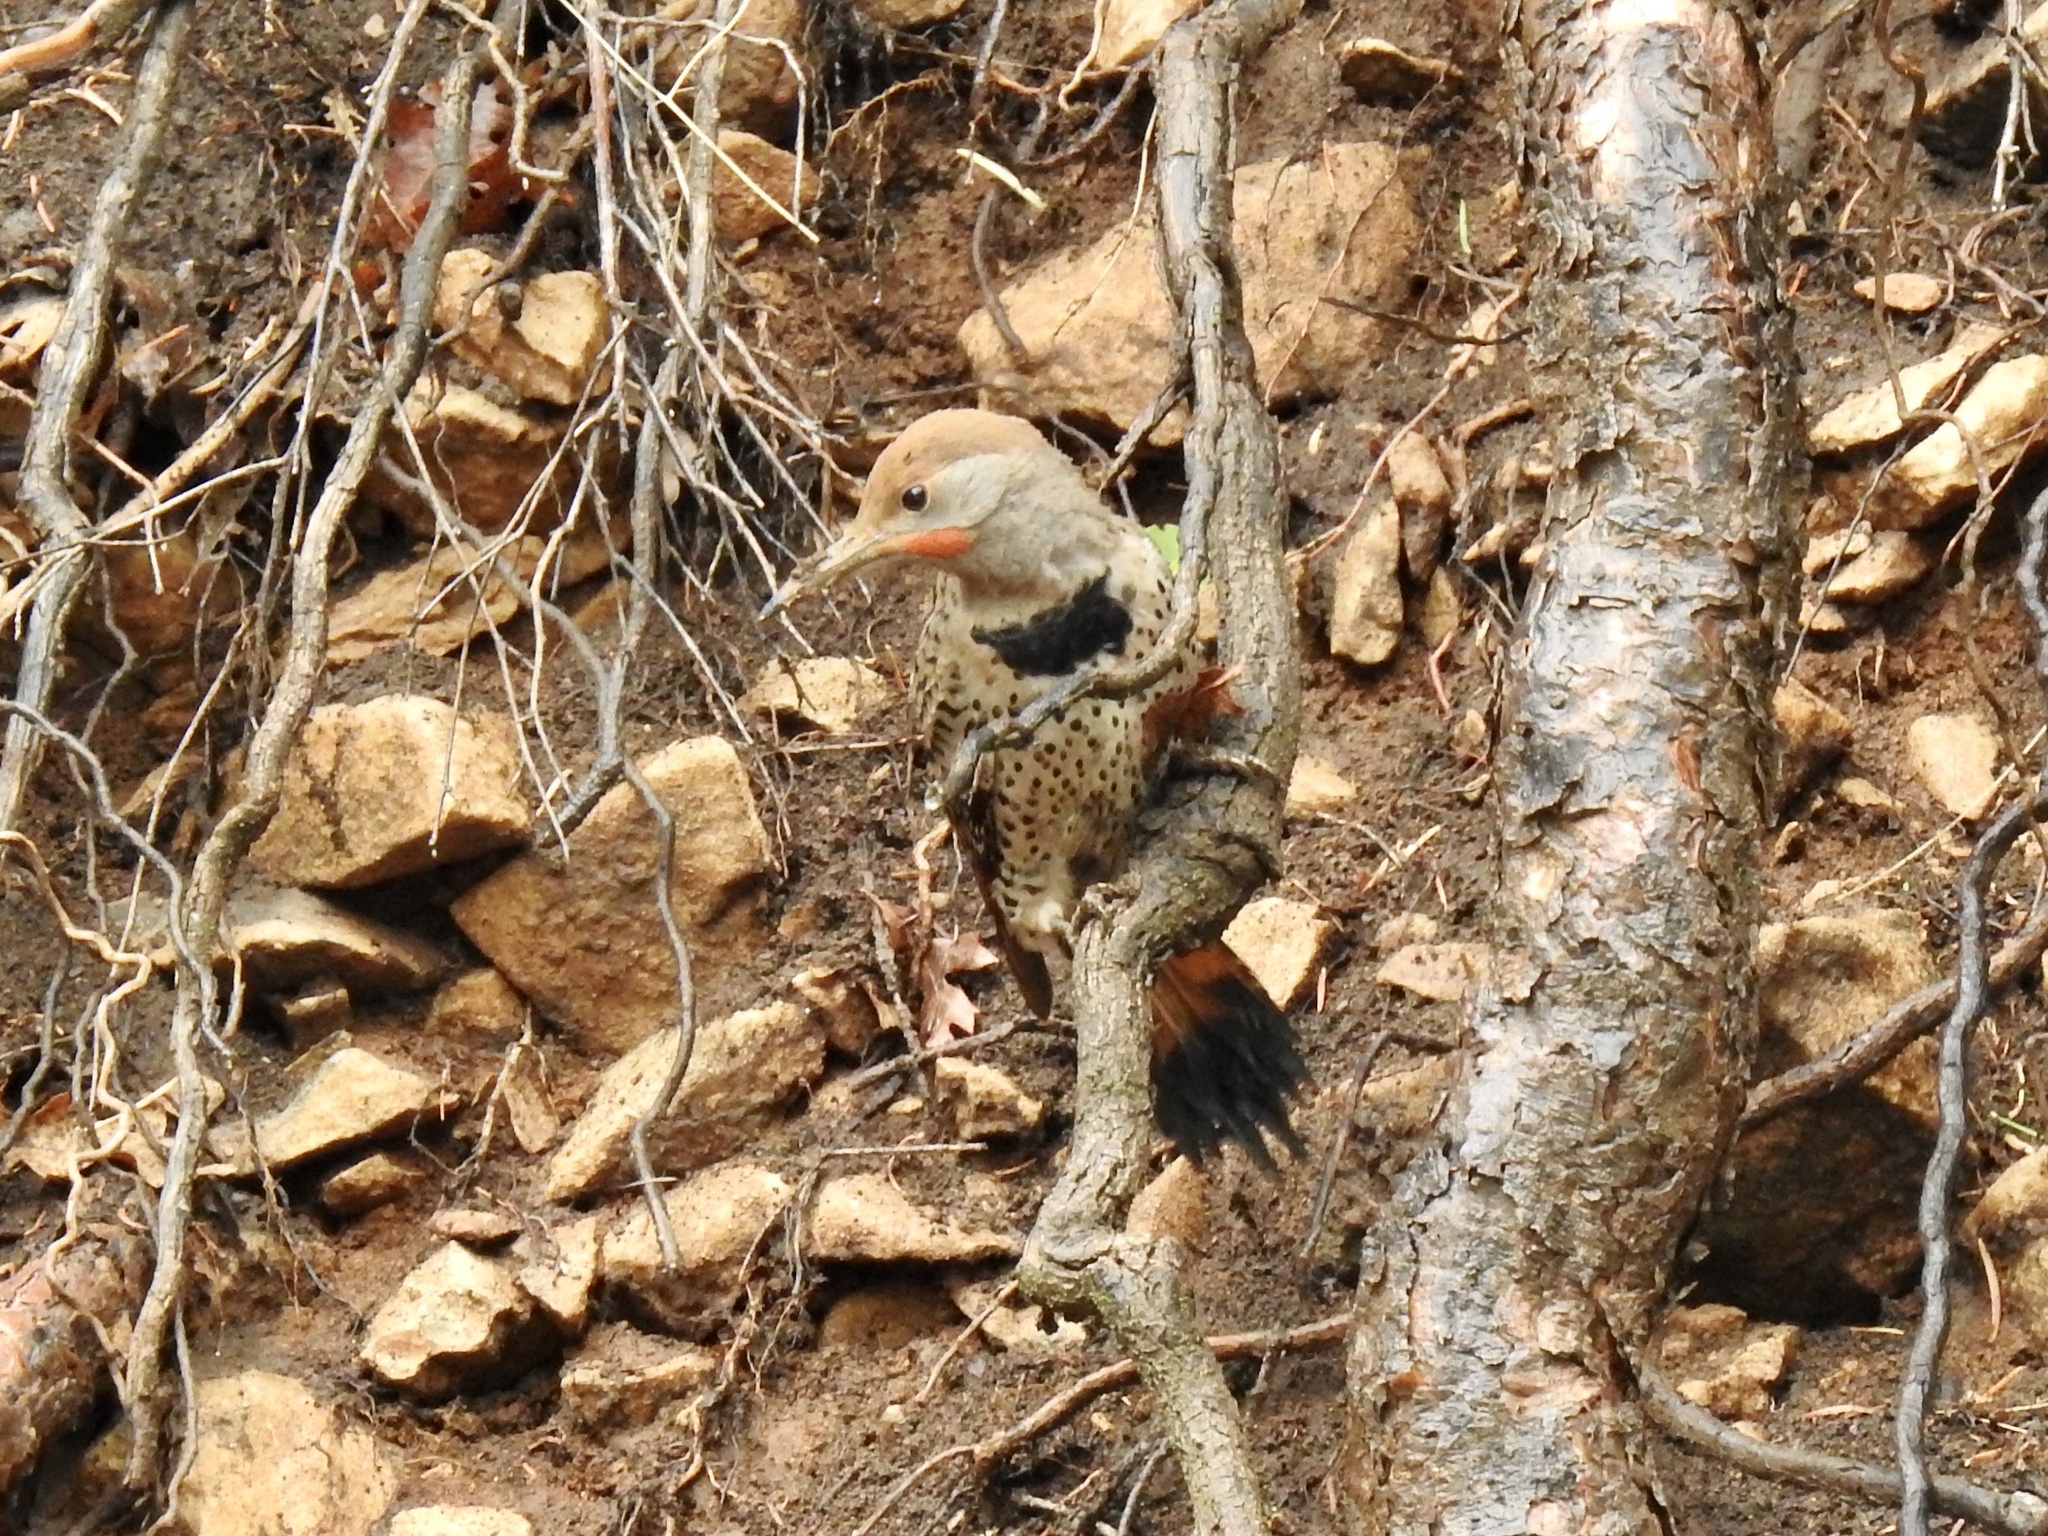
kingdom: Animalia
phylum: Chordata
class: Aves
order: Piciformes
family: Picidae
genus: Colaptes
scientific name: Colaptes auratus
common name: Northern flicker
